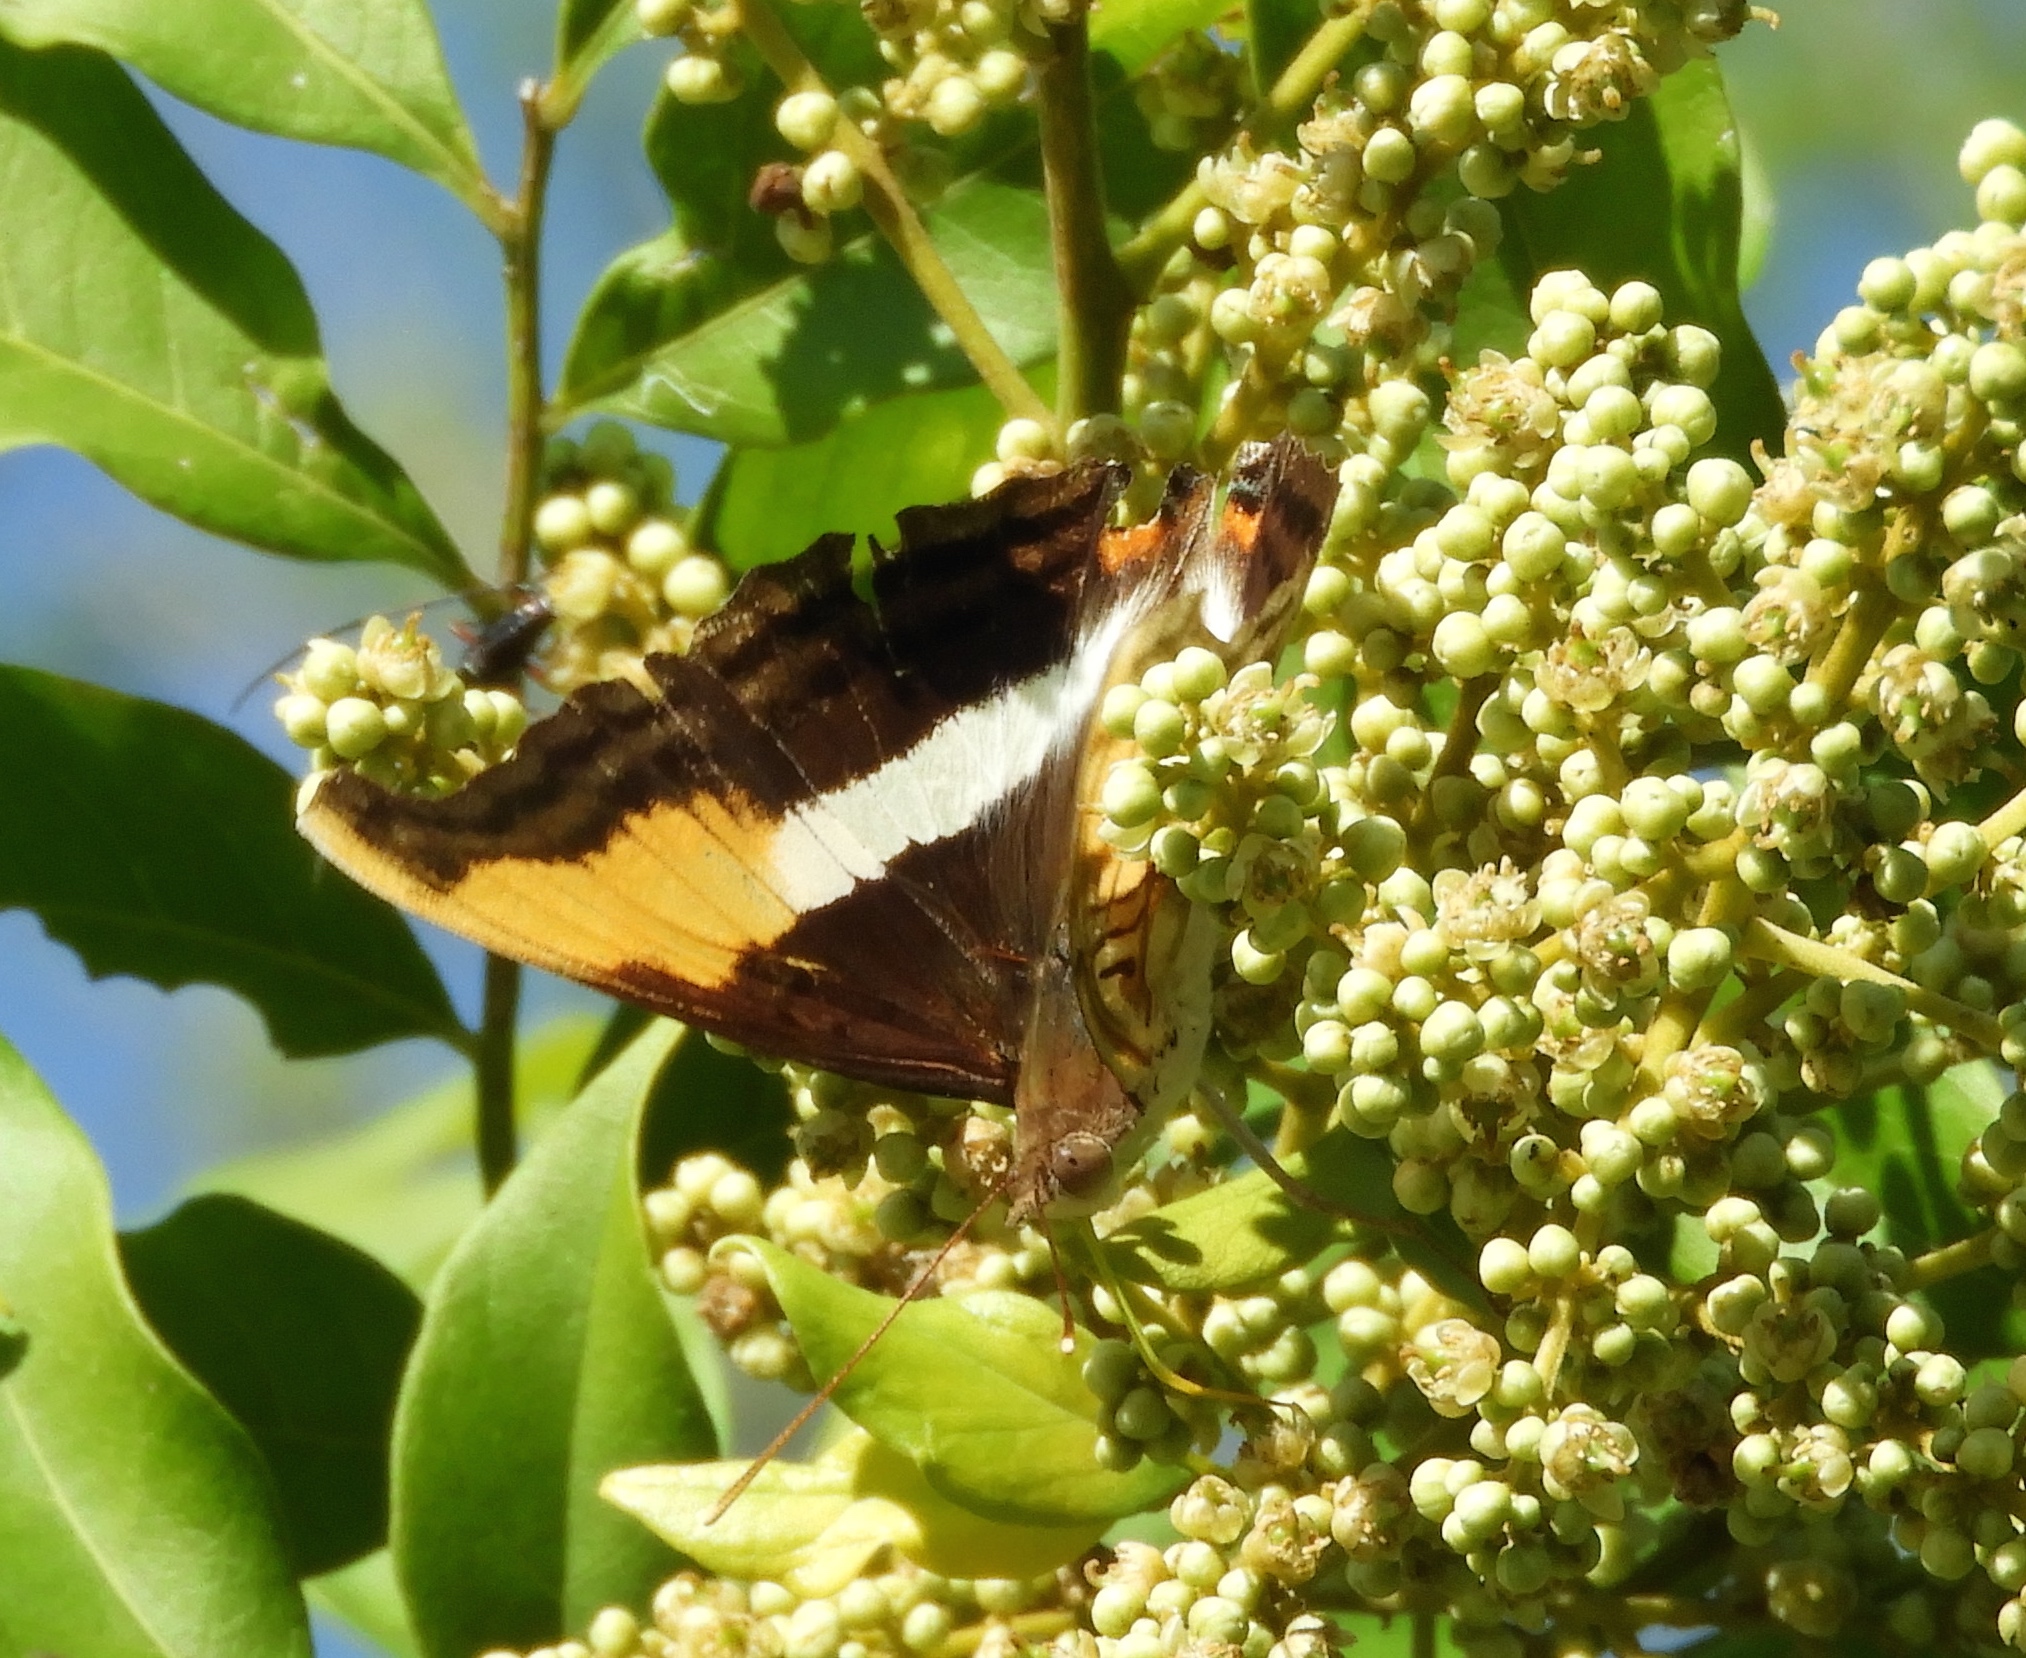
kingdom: Animalia
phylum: Arthropoda
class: Insecta
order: Lepidoptera
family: Nymphalidae
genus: Doxocopa
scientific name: Doxocopa laure
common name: Silver emperor
